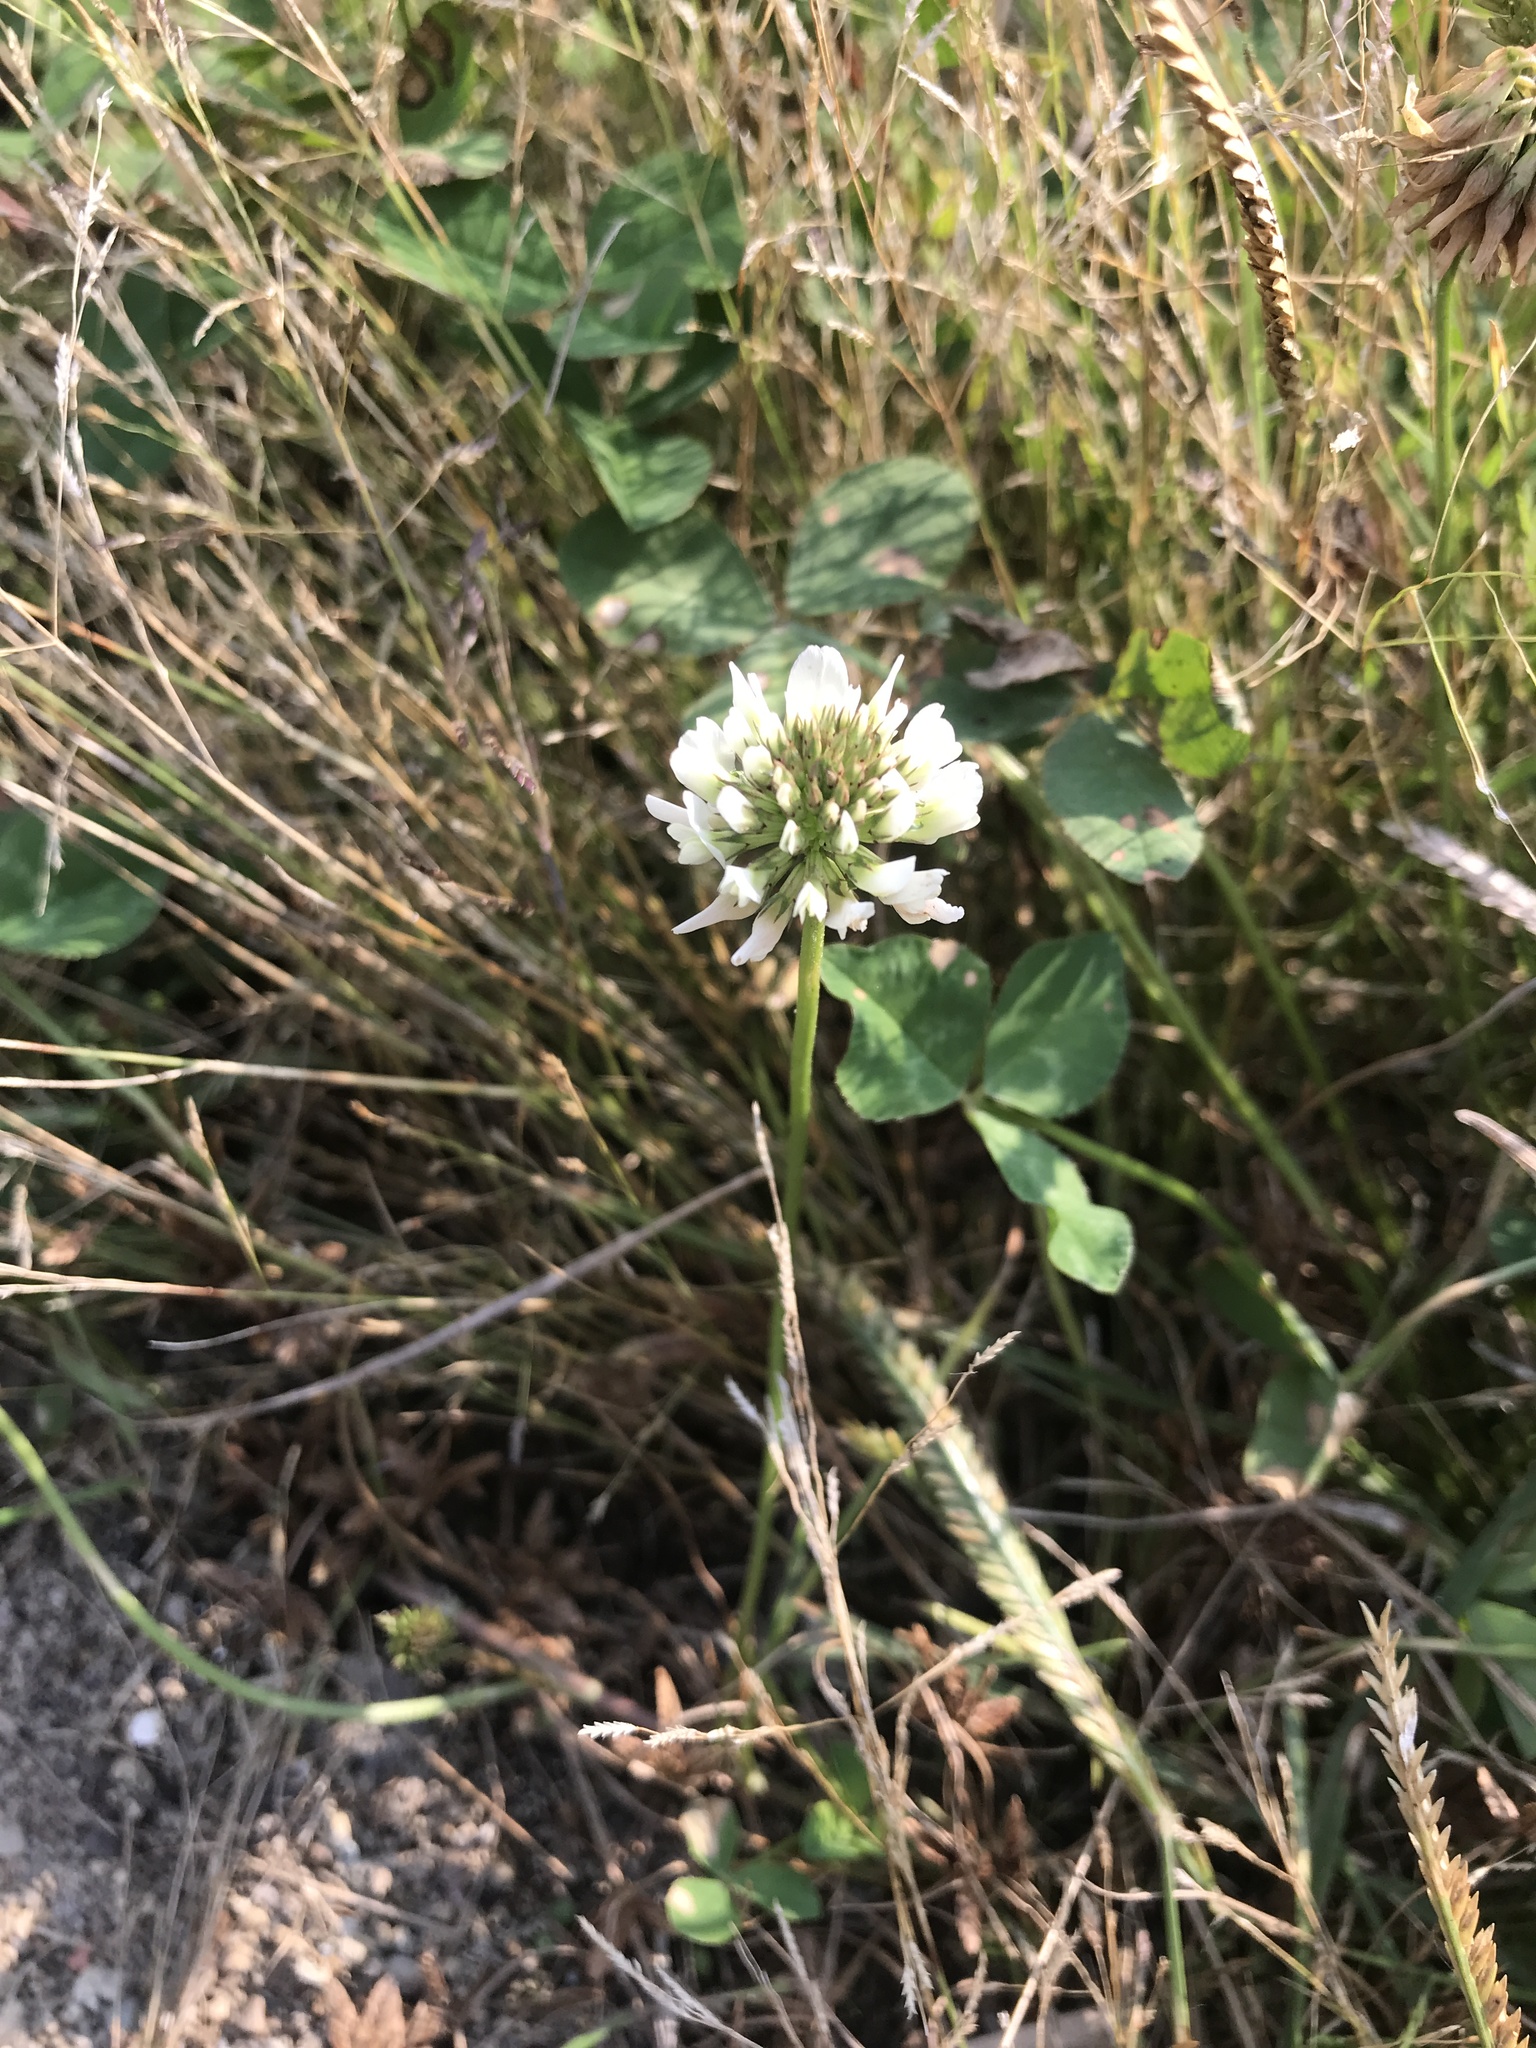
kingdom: Plantae
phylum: Tracheophyta
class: Magnoliopsida
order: Fabales
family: Fabaceae
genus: Trifolium
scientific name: Trifolium repens
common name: White clover
